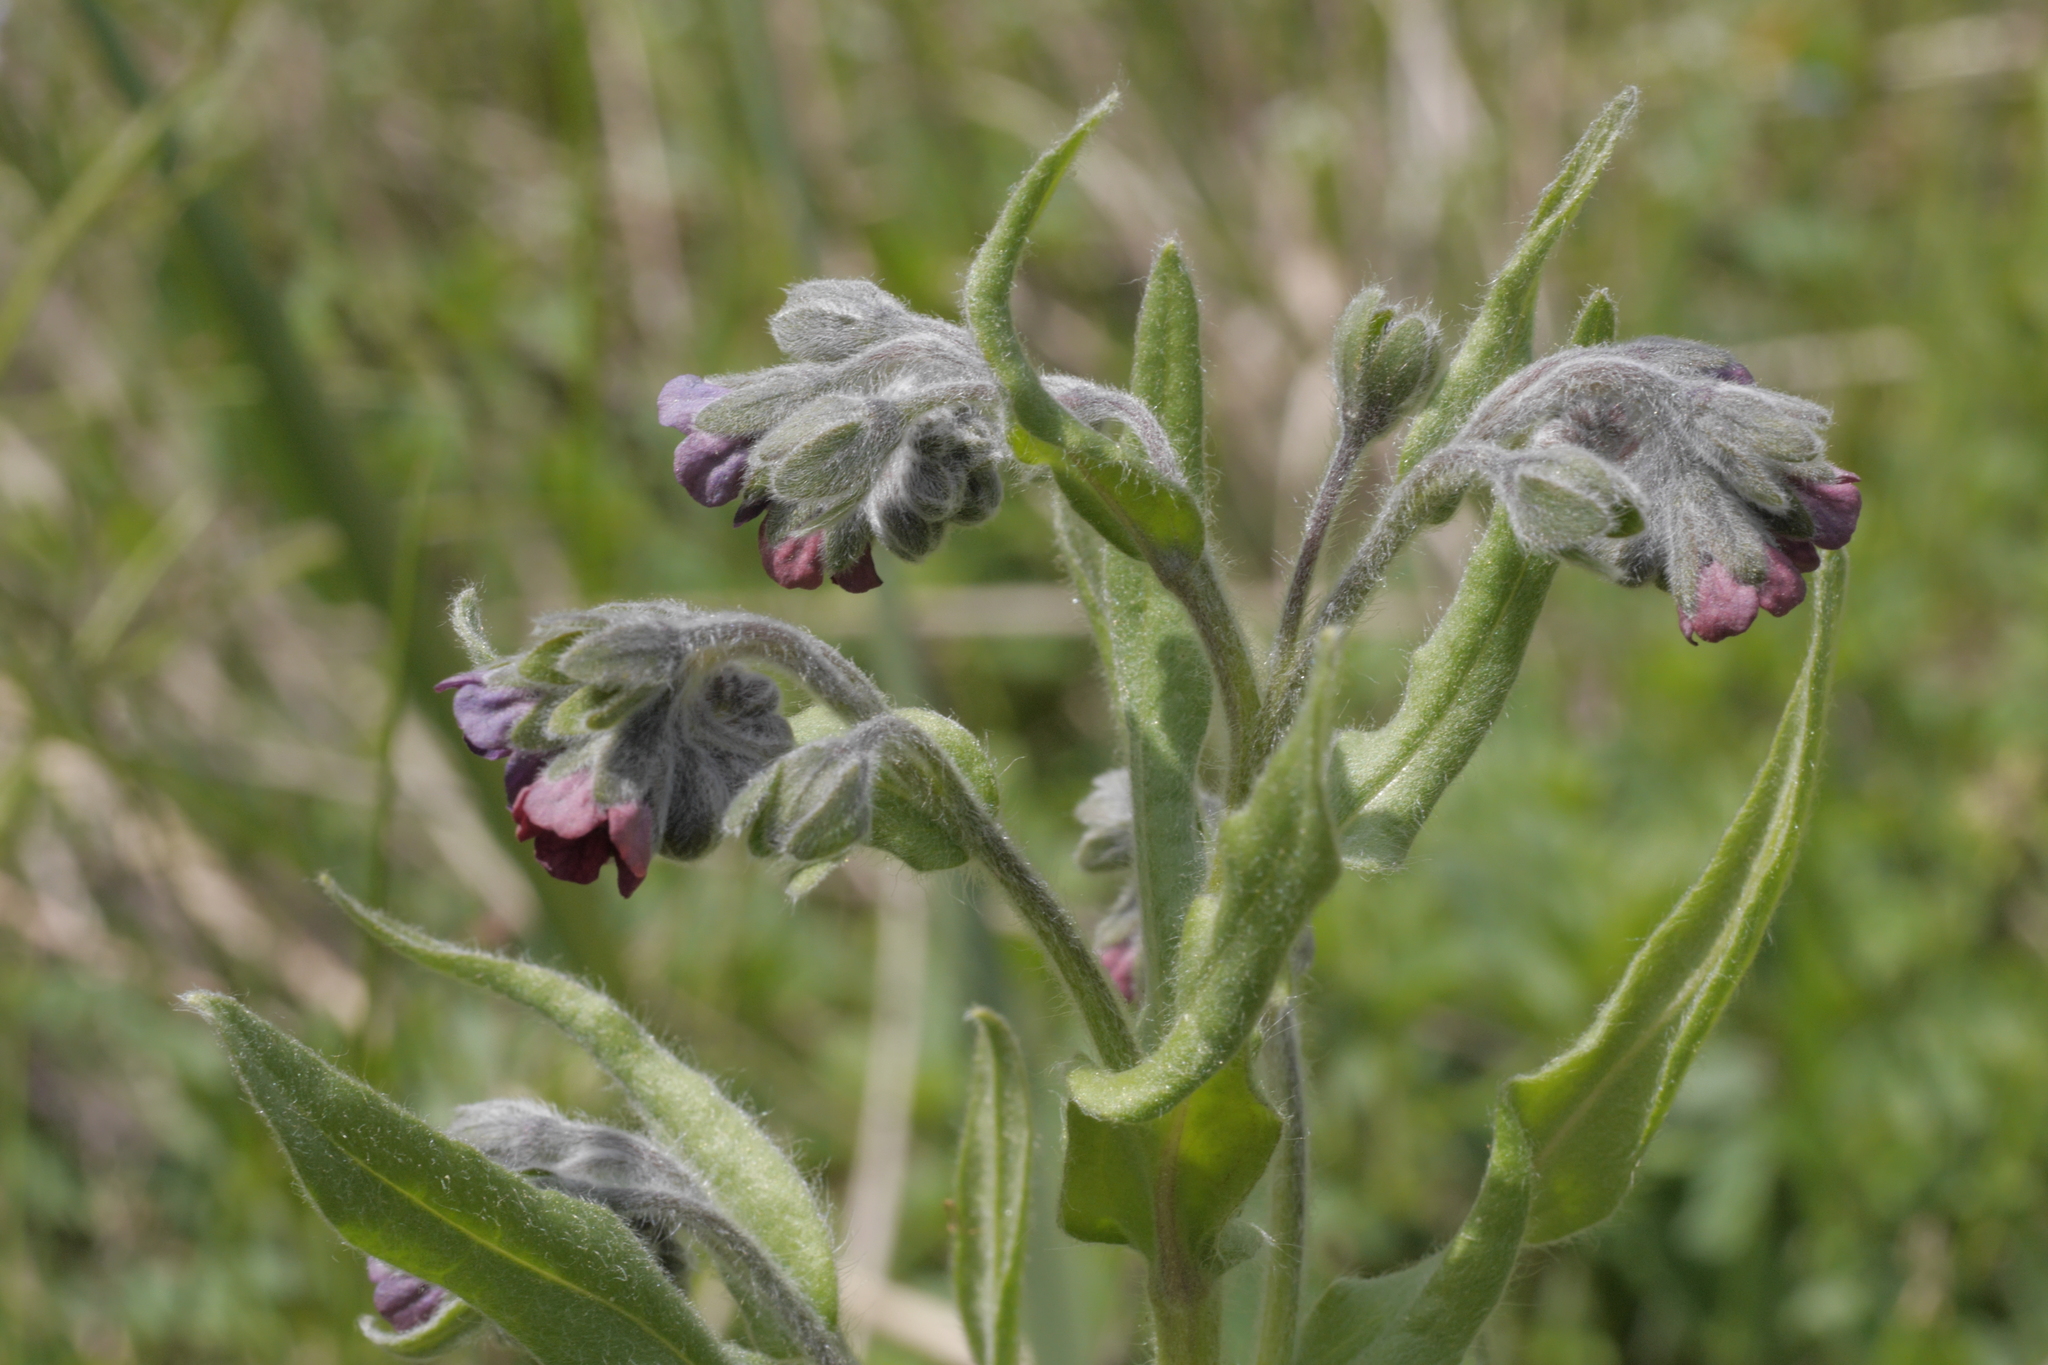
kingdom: Plantae
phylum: Tracheophyta
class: Magnoliopsida
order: Boraginales
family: Boraginaceae
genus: Cynoglossum
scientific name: Cynoglossum officinale
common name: Hound's-tongue
